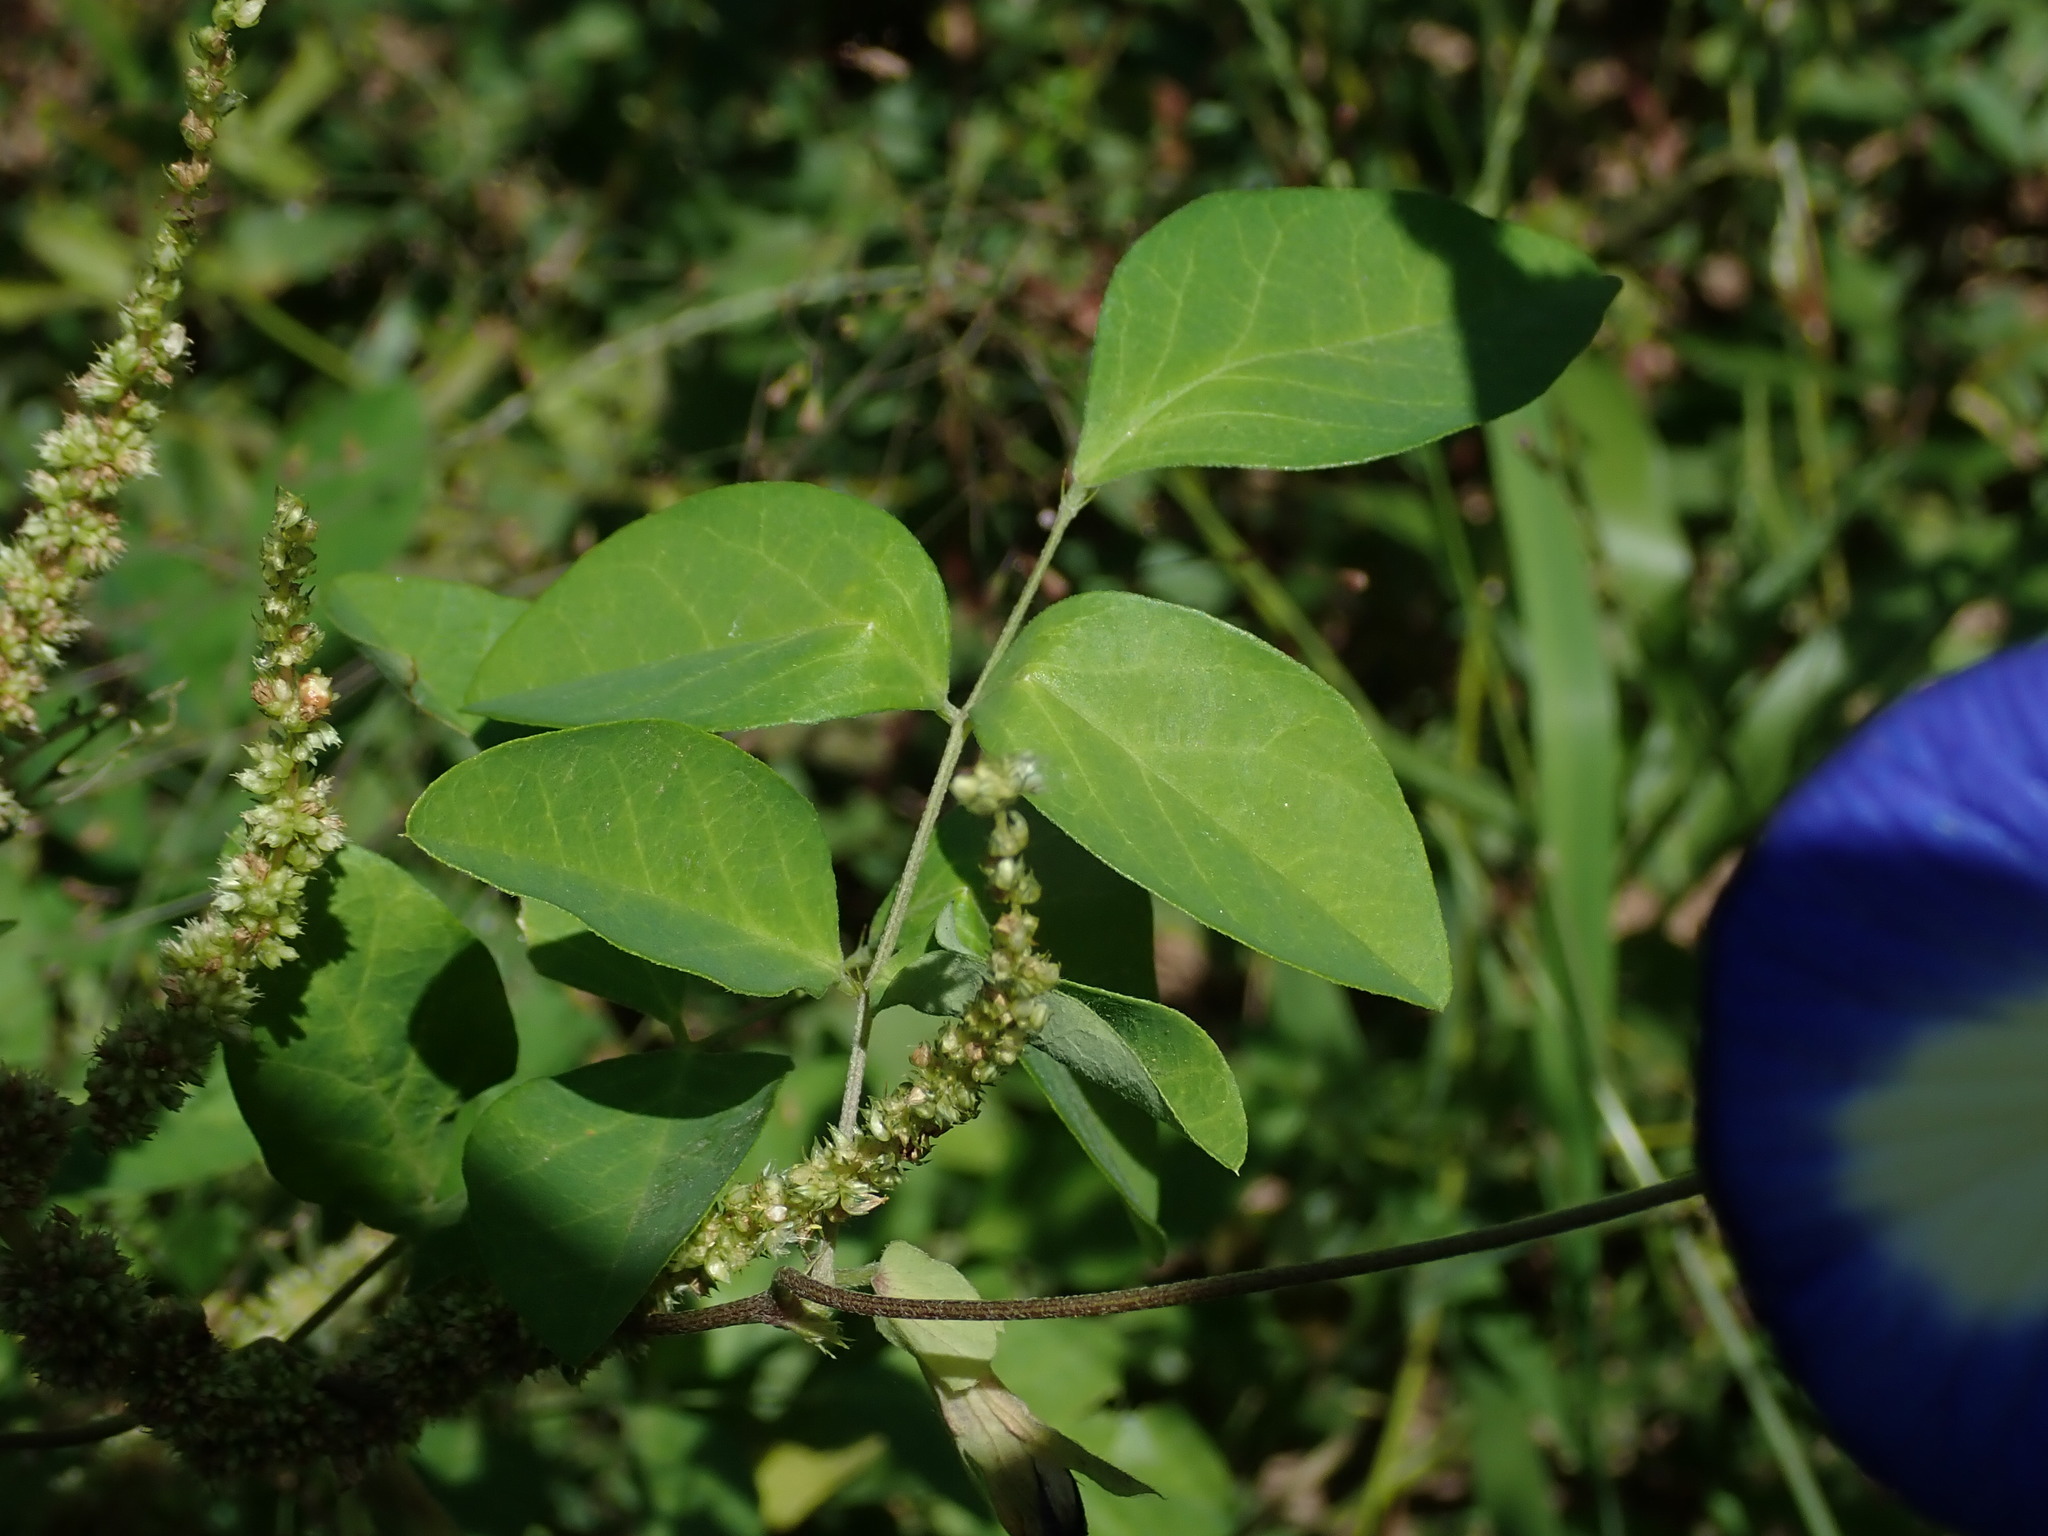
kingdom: Plantae
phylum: Tracheophyta
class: Magnoliopsida
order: Fabales
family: Fabaceae
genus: Clitoria
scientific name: Clitoria ternatea
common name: Asian pigeonwings
